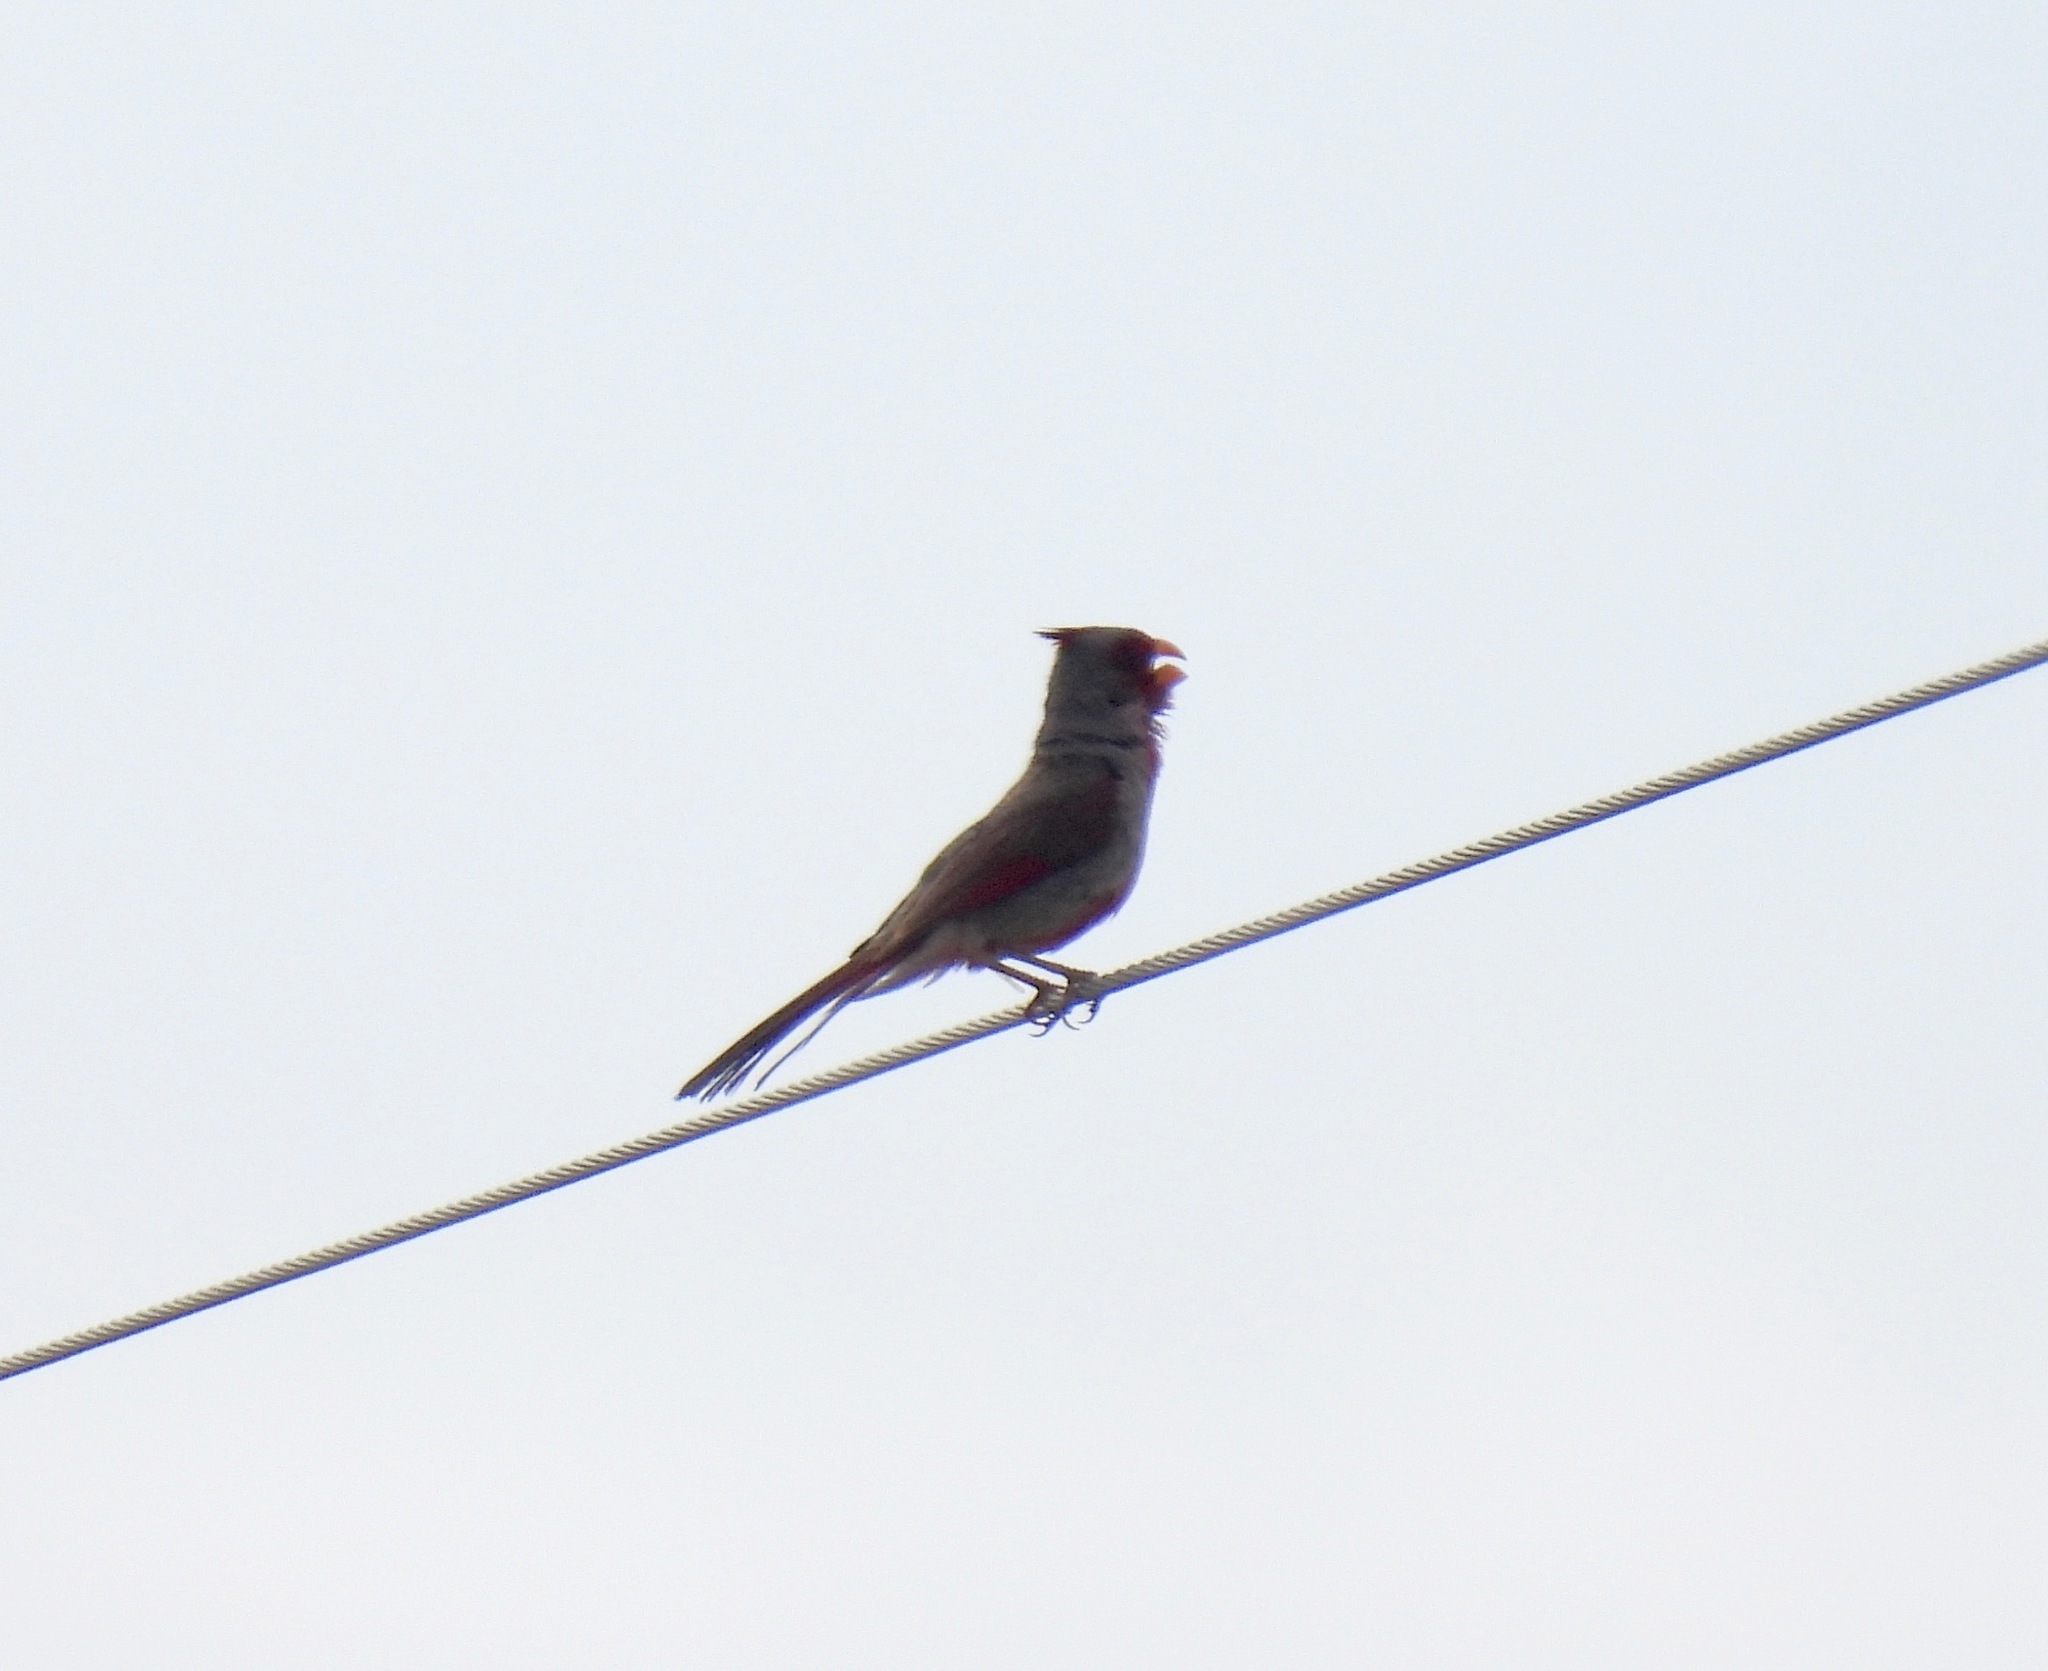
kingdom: Animalia
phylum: Chordata
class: Aves
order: Passeriformes
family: Cardinalidae
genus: Cardinalis
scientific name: Cardinalis sinuatus
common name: Pyrrhuloxia
